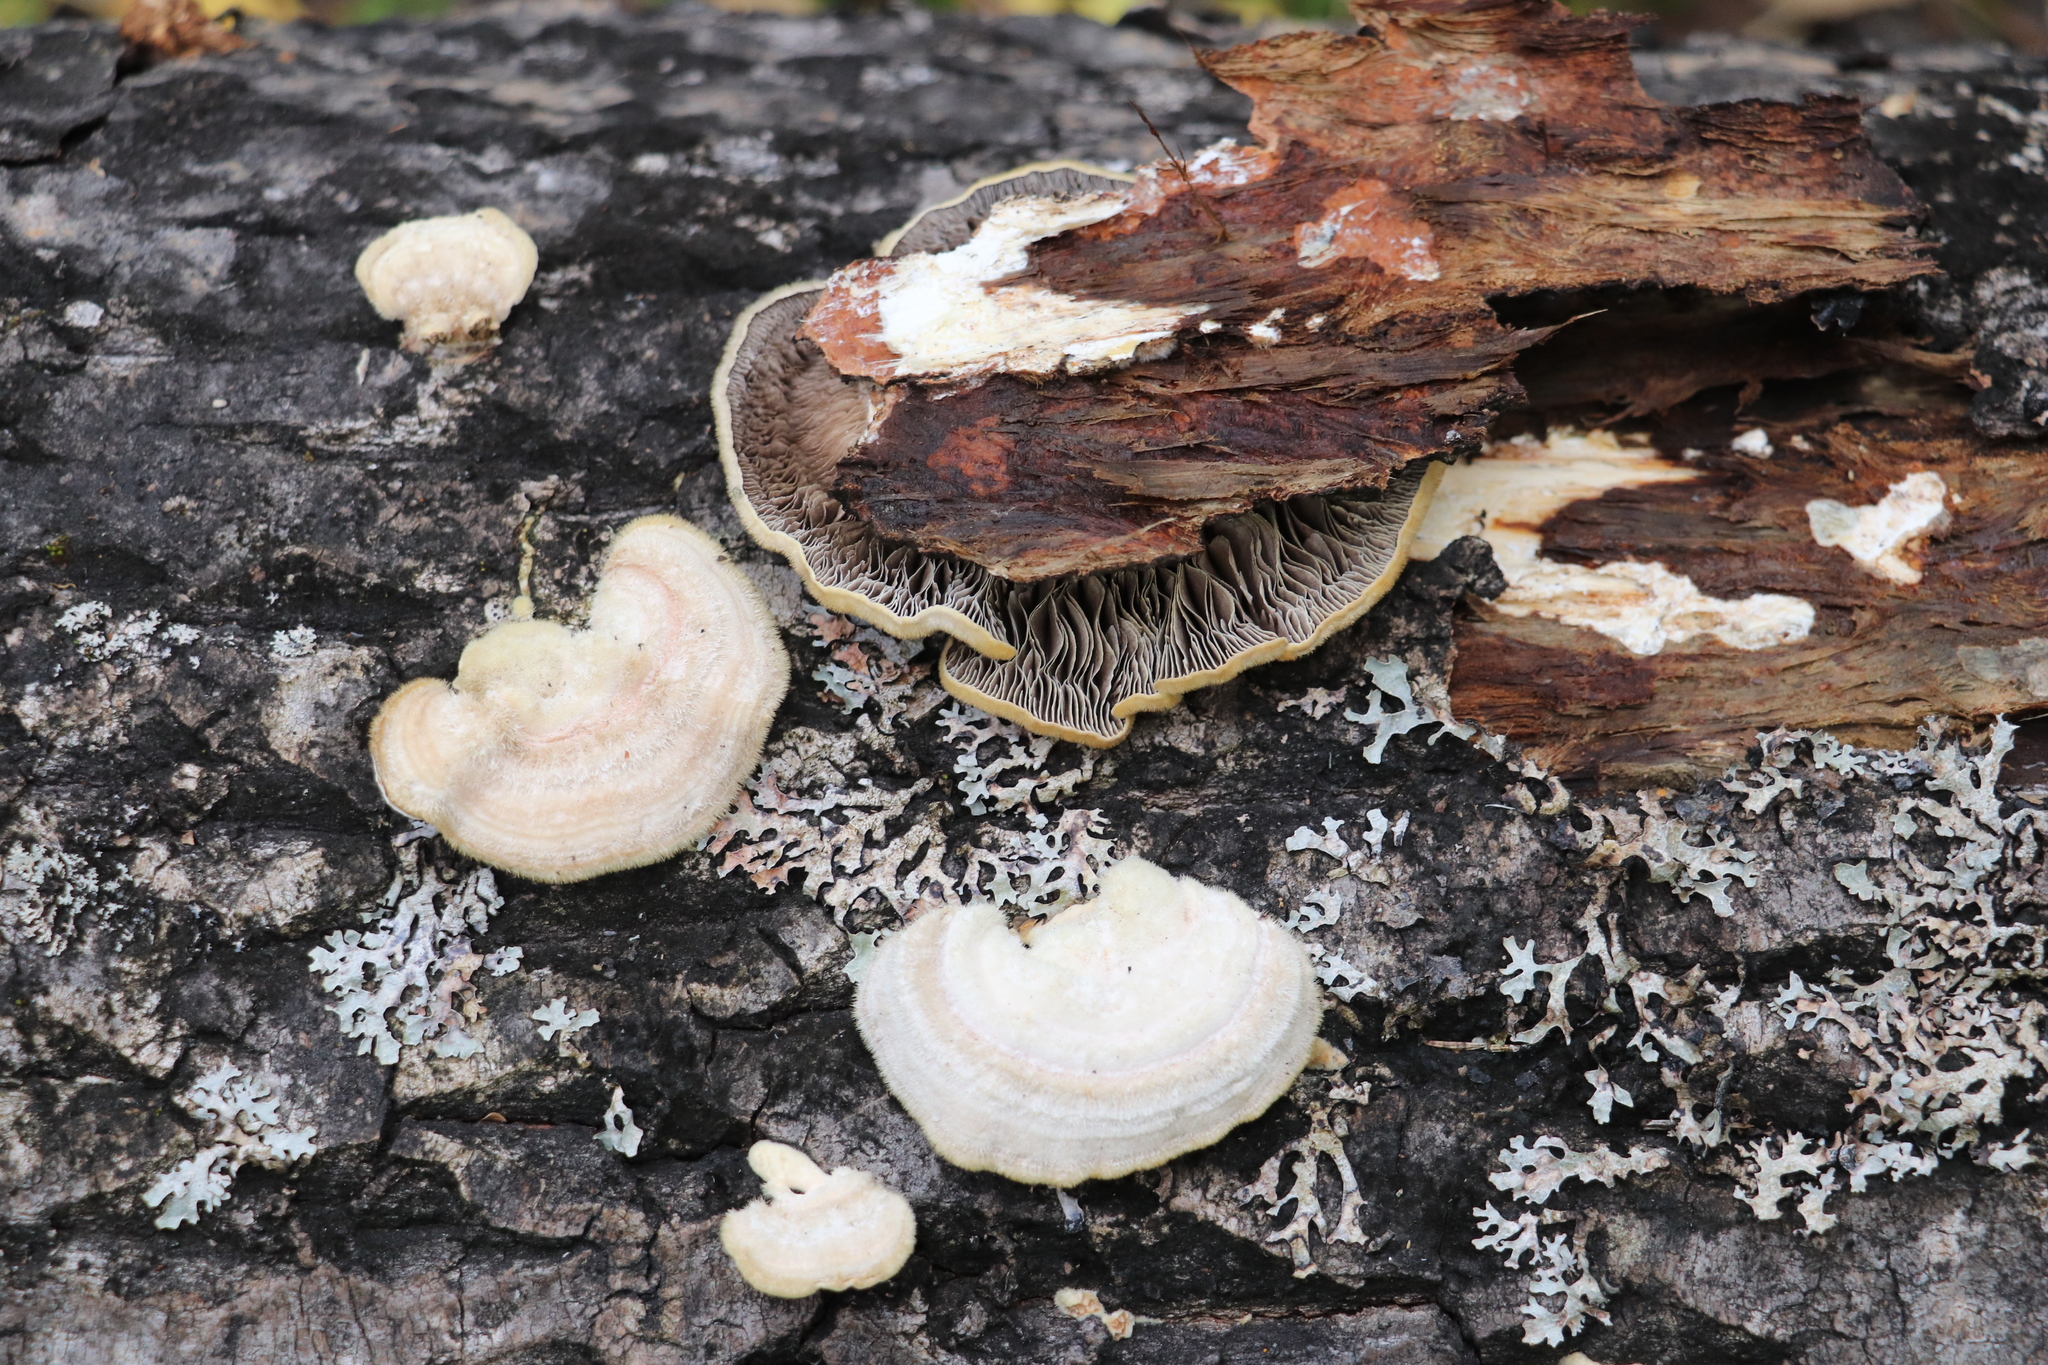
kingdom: Fungi
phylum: Basidiomycota
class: Agaricomycetes
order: Polyporales
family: Polyporaceae
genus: Lenzites
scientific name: Lenzites betulinus
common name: Birch mazegill
